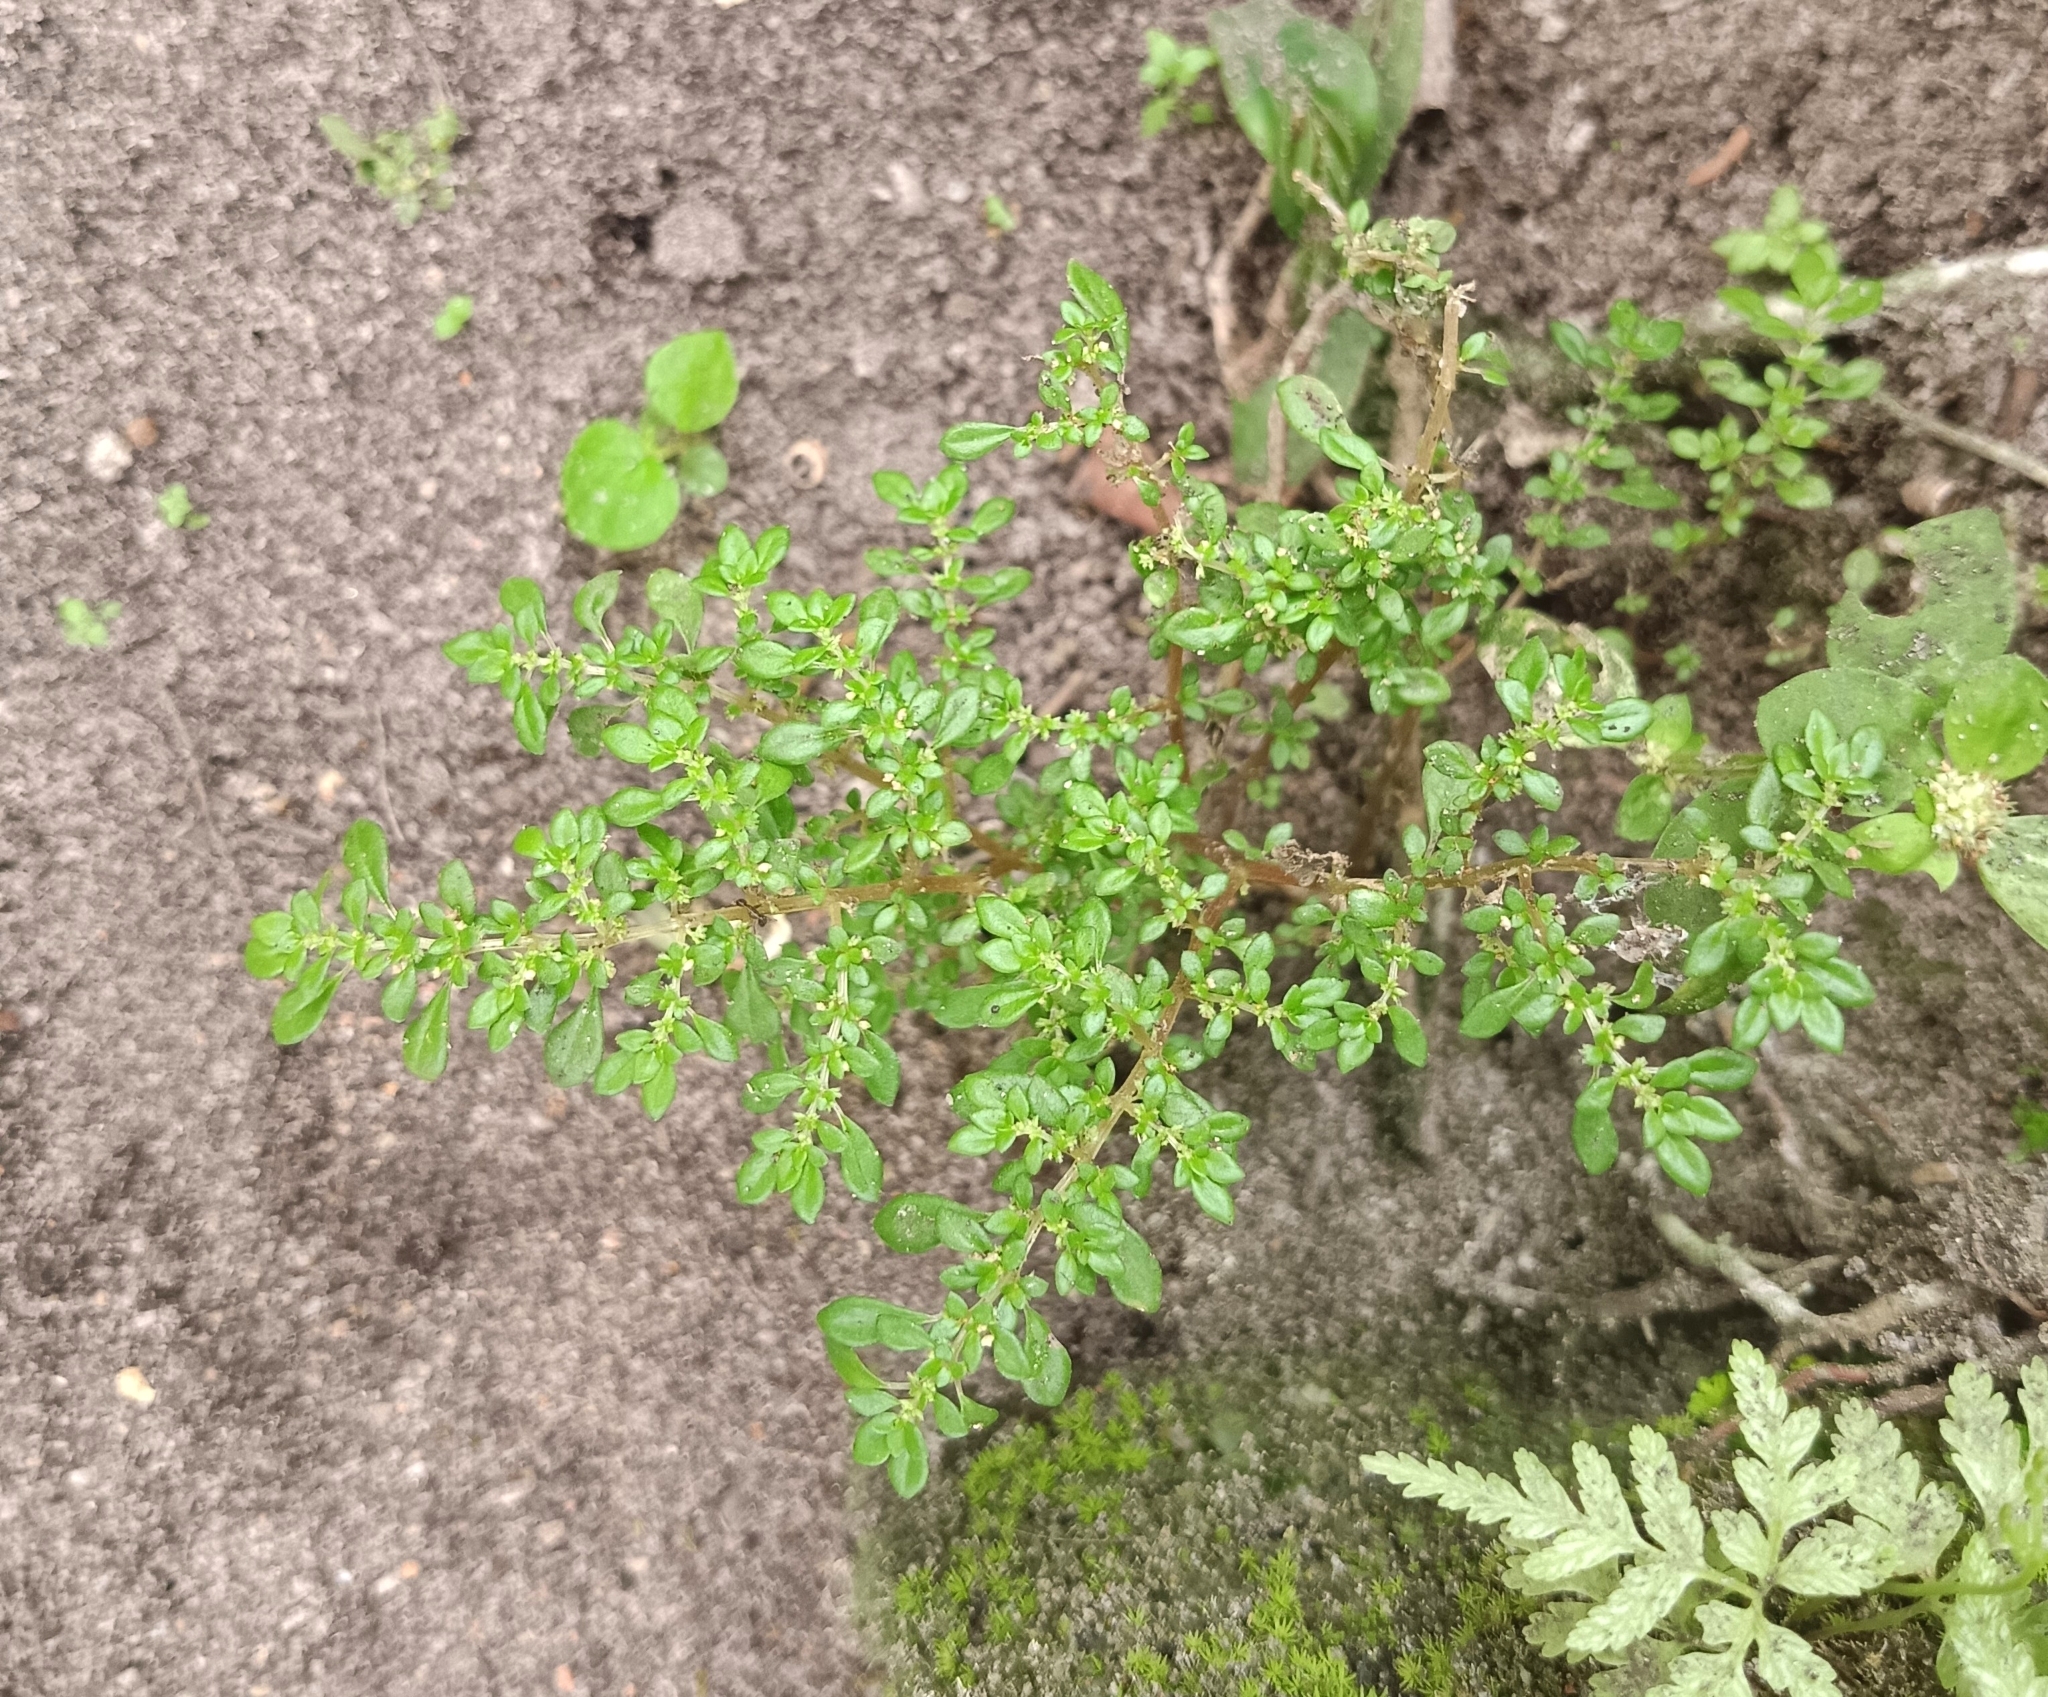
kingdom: Plantae
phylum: Tracheophyta
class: Magnoliopsida
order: Rosales
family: Urticaceae
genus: Pilea
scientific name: Pilea microphylla
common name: Artillery-plant
